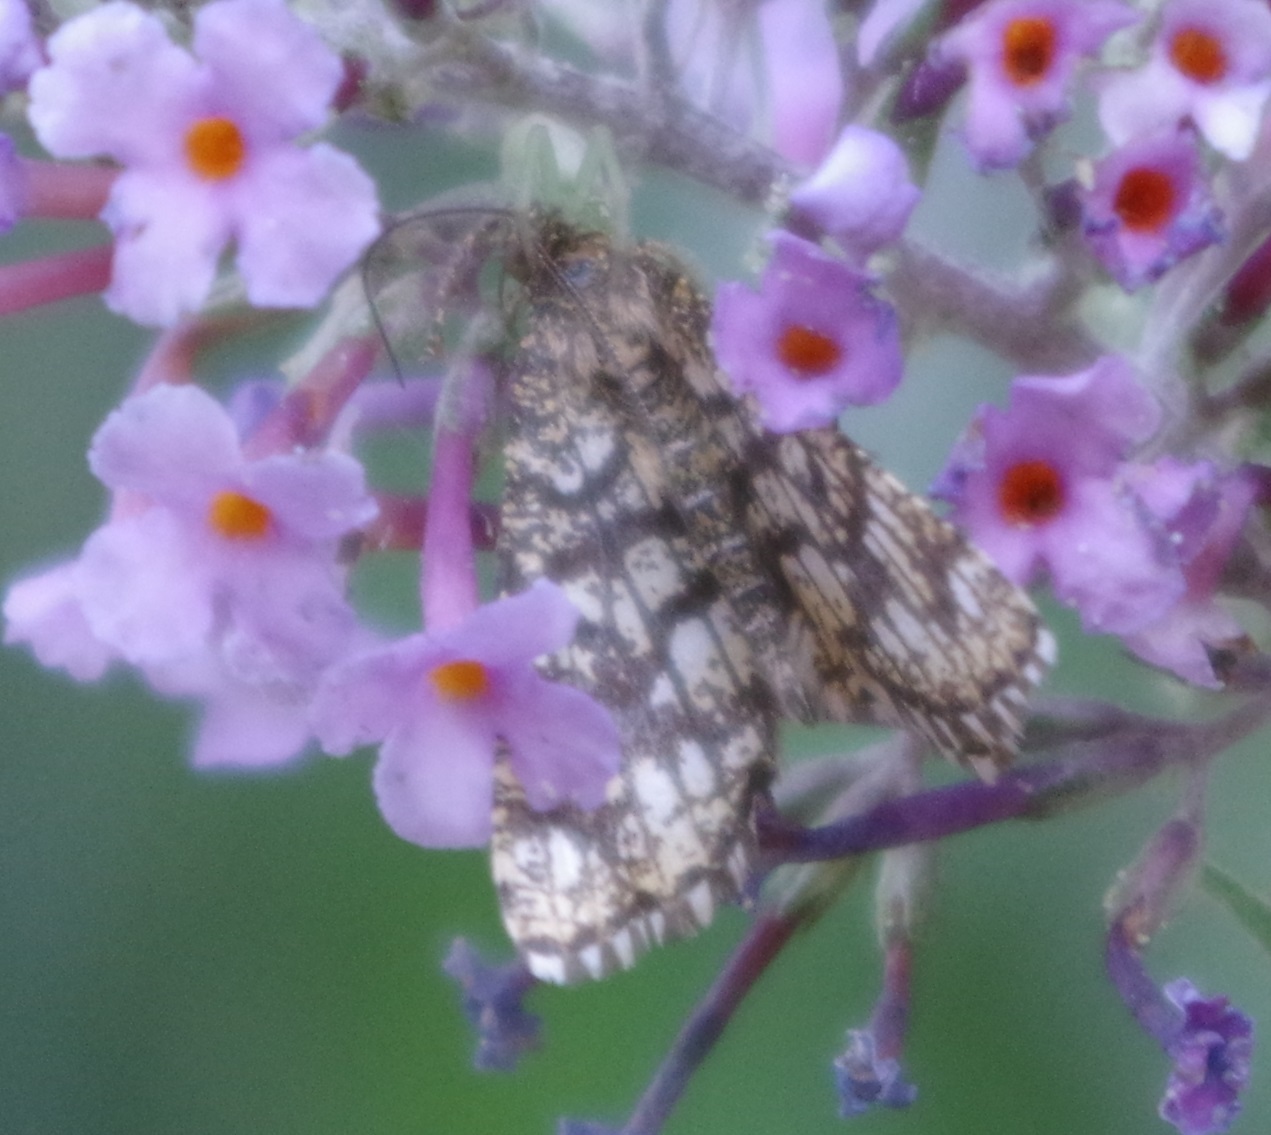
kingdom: Animalia
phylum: Arthropoda
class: Insecta
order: Lepidoptera
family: Geometridae
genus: Chiasmia
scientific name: Chiasmia clathrata
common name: Latticed heath
